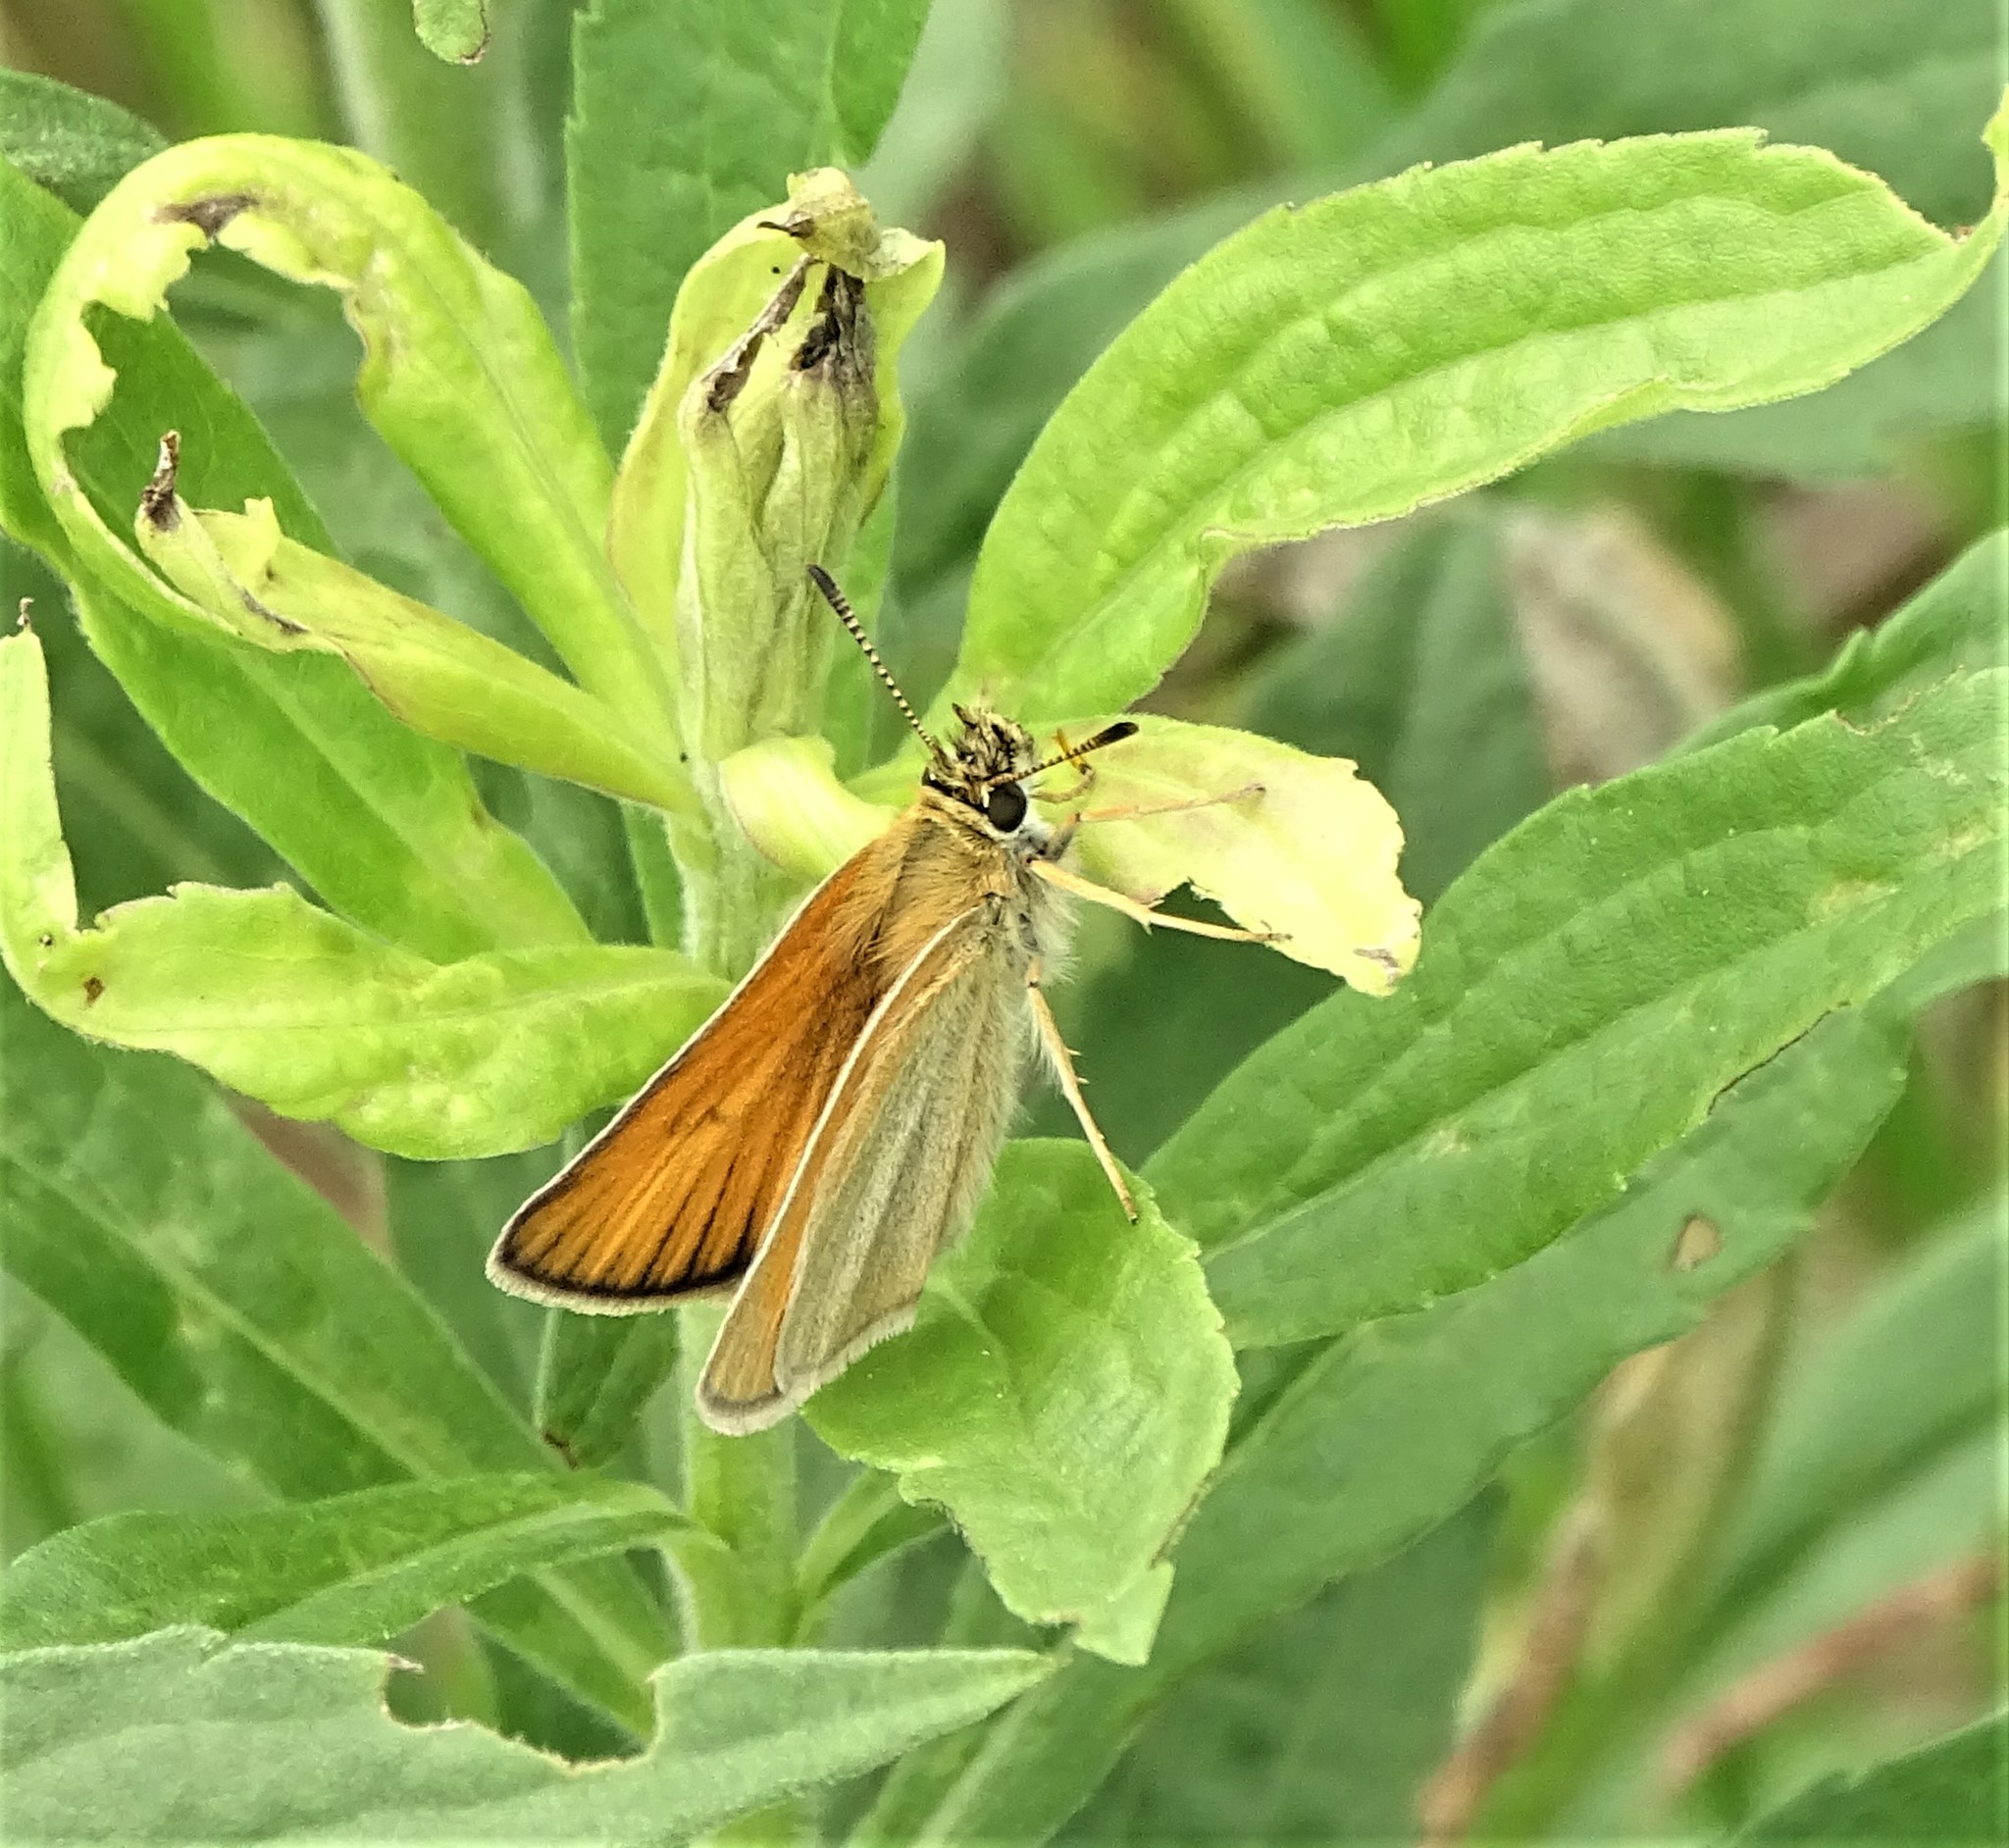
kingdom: Animalia
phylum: Arthropoda
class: Insecta
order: Lepidoptera
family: Hesperiidae
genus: Thymelicus
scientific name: Thymelicus lineola
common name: Essex skipper
